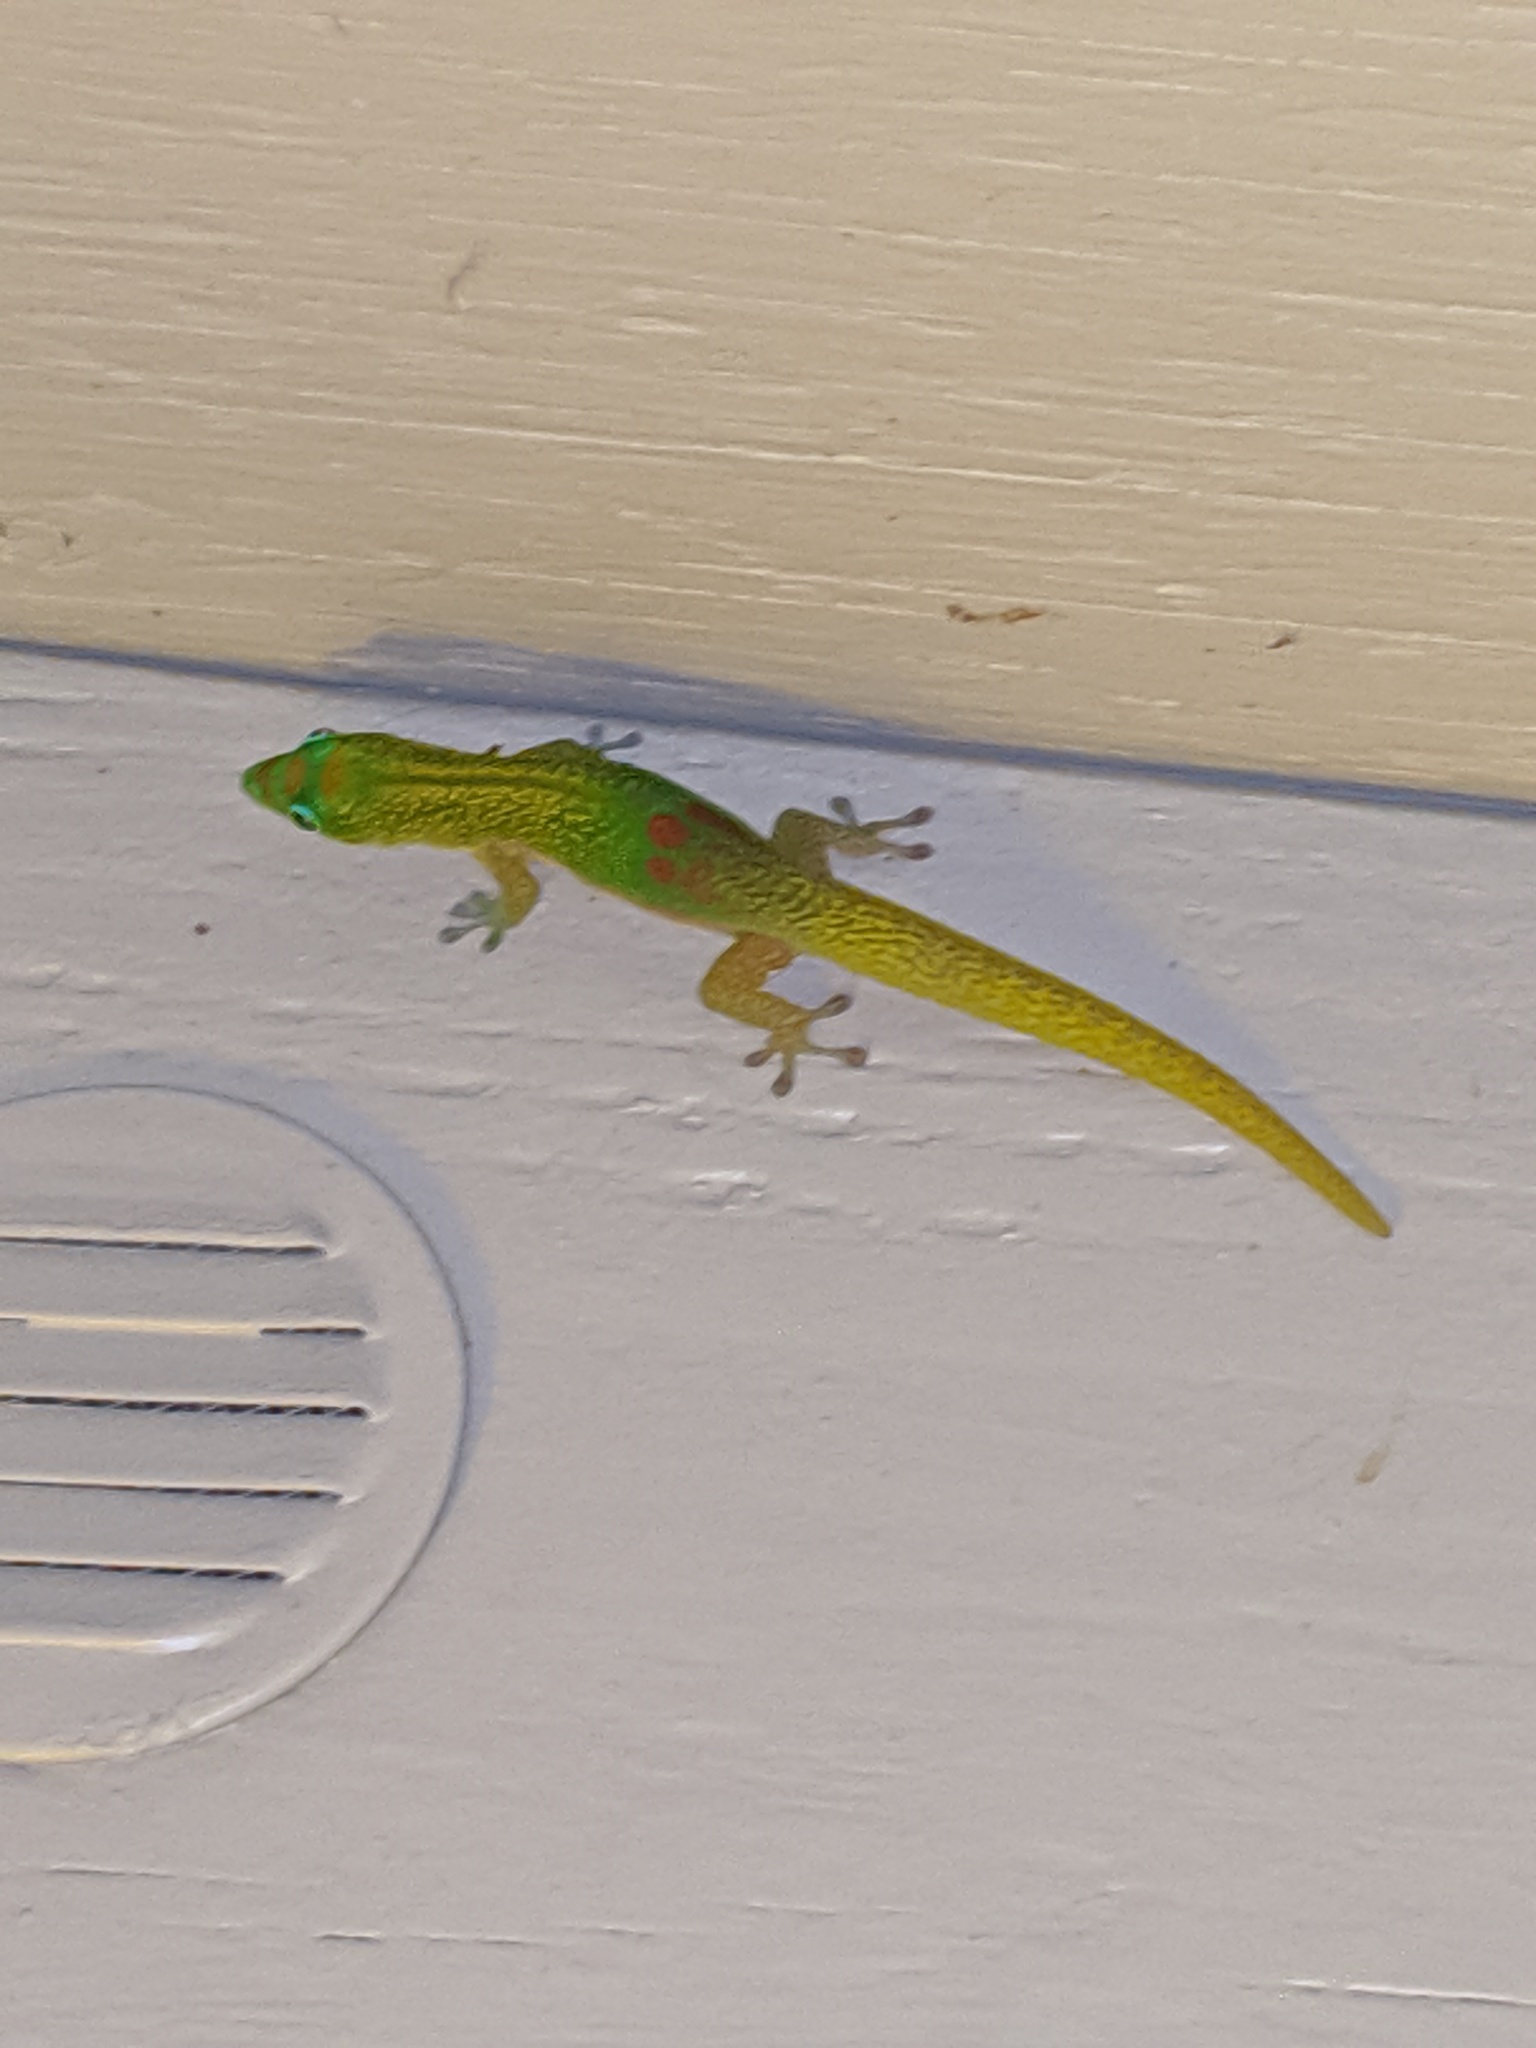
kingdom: Animalia
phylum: Chordata
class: Squamata
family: Gekkonidae
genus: Phelsuma
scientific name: Phelsuma laticauda
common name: Gold dust day gecko
